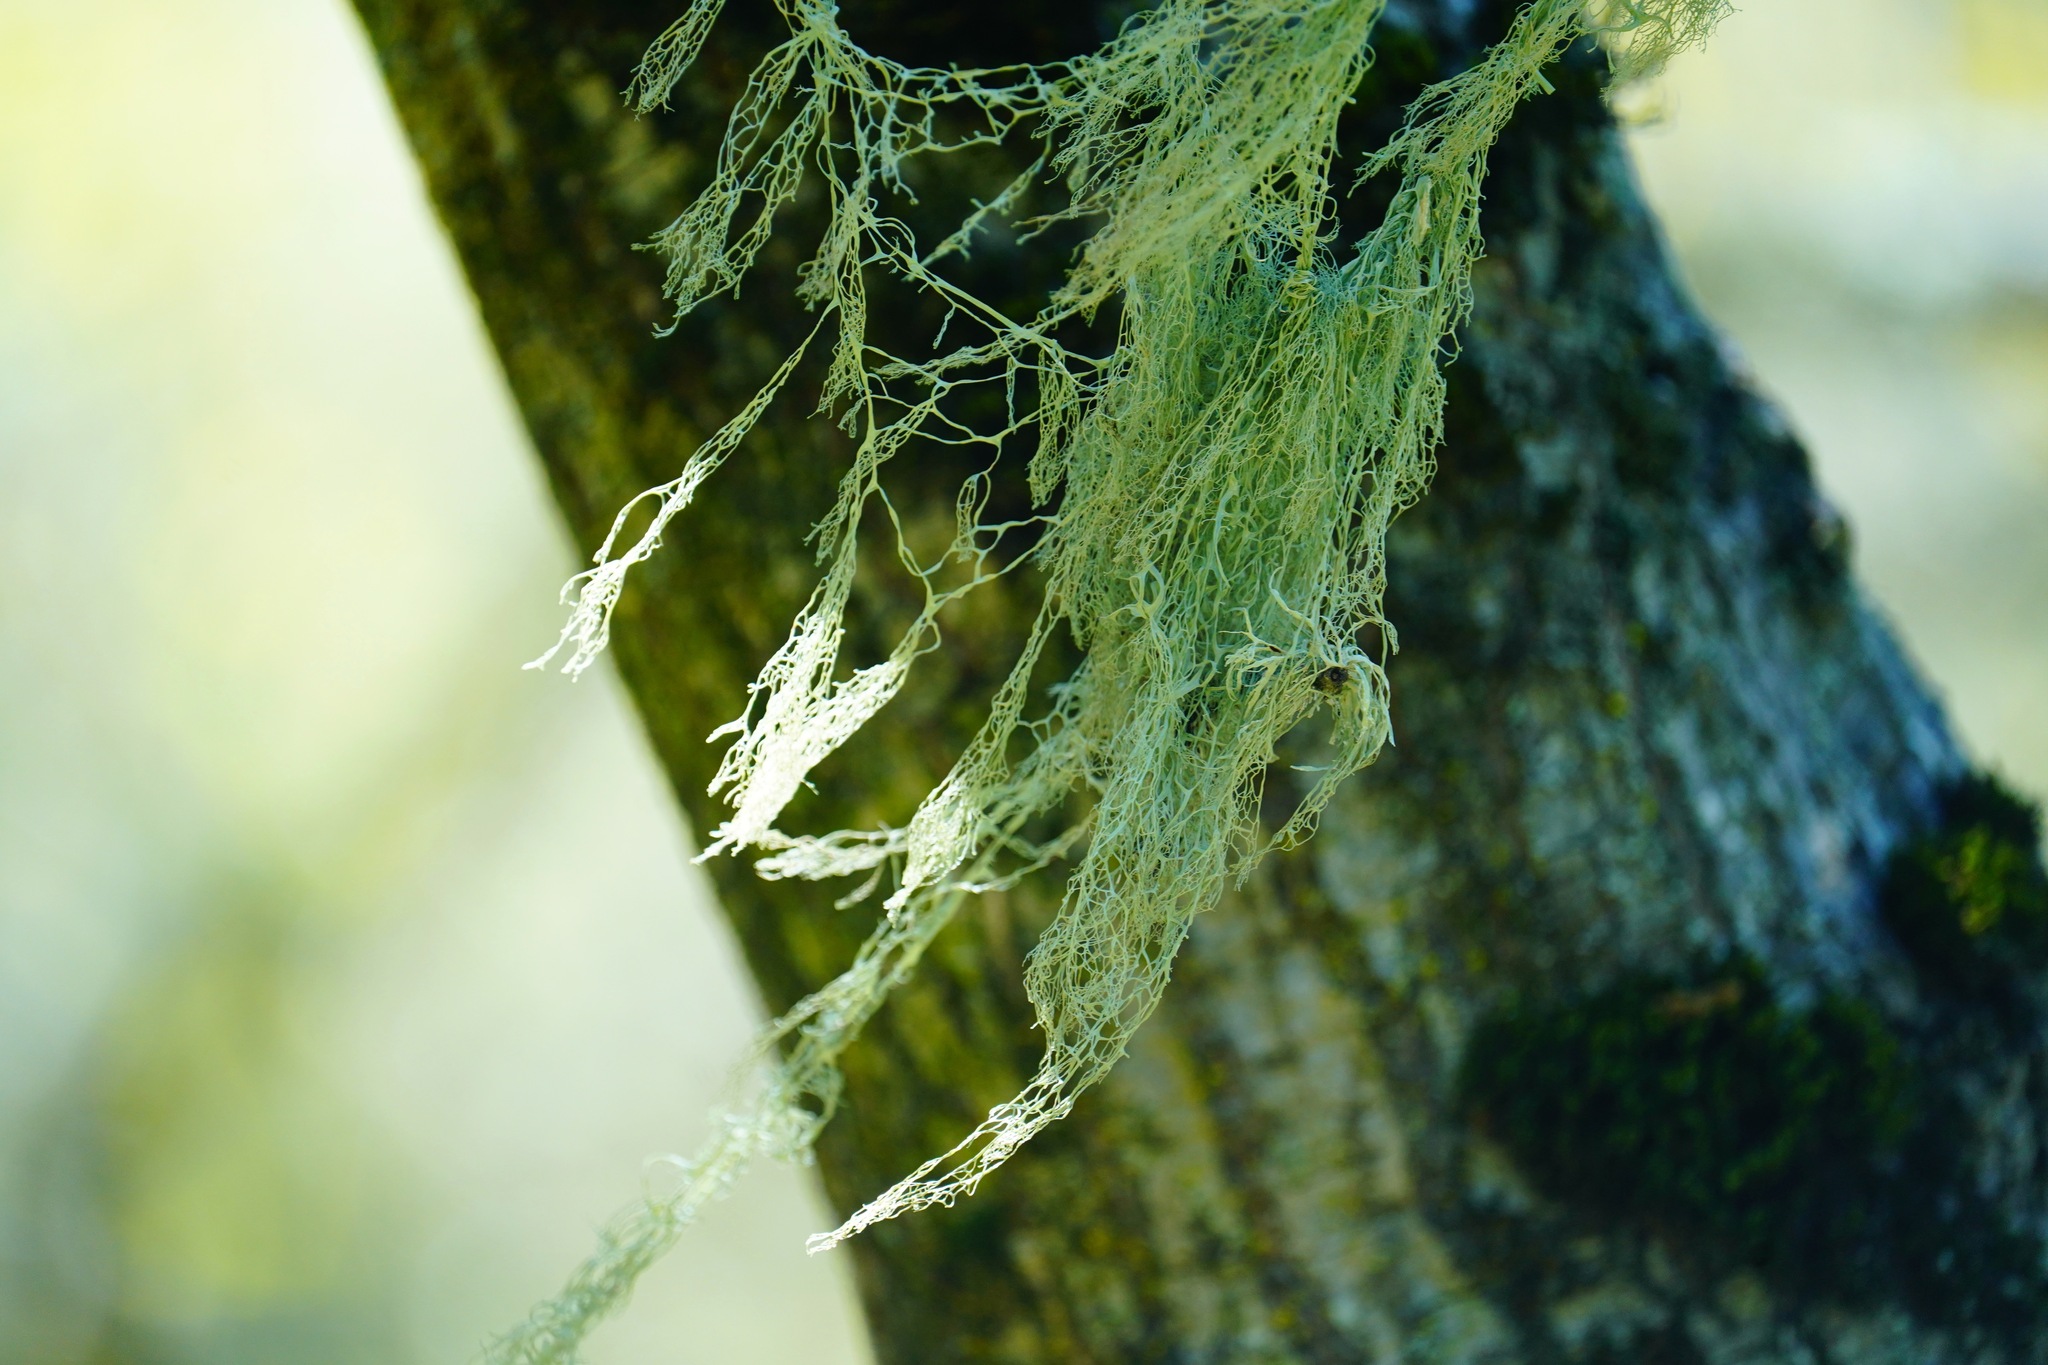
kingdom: Fungi
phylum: Ascomycota
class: Lecanoromycetes
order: Lecanorales
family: Ramalinaceae
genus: Ramalina
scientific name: Ramalina menziesii
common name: Lace lichen
